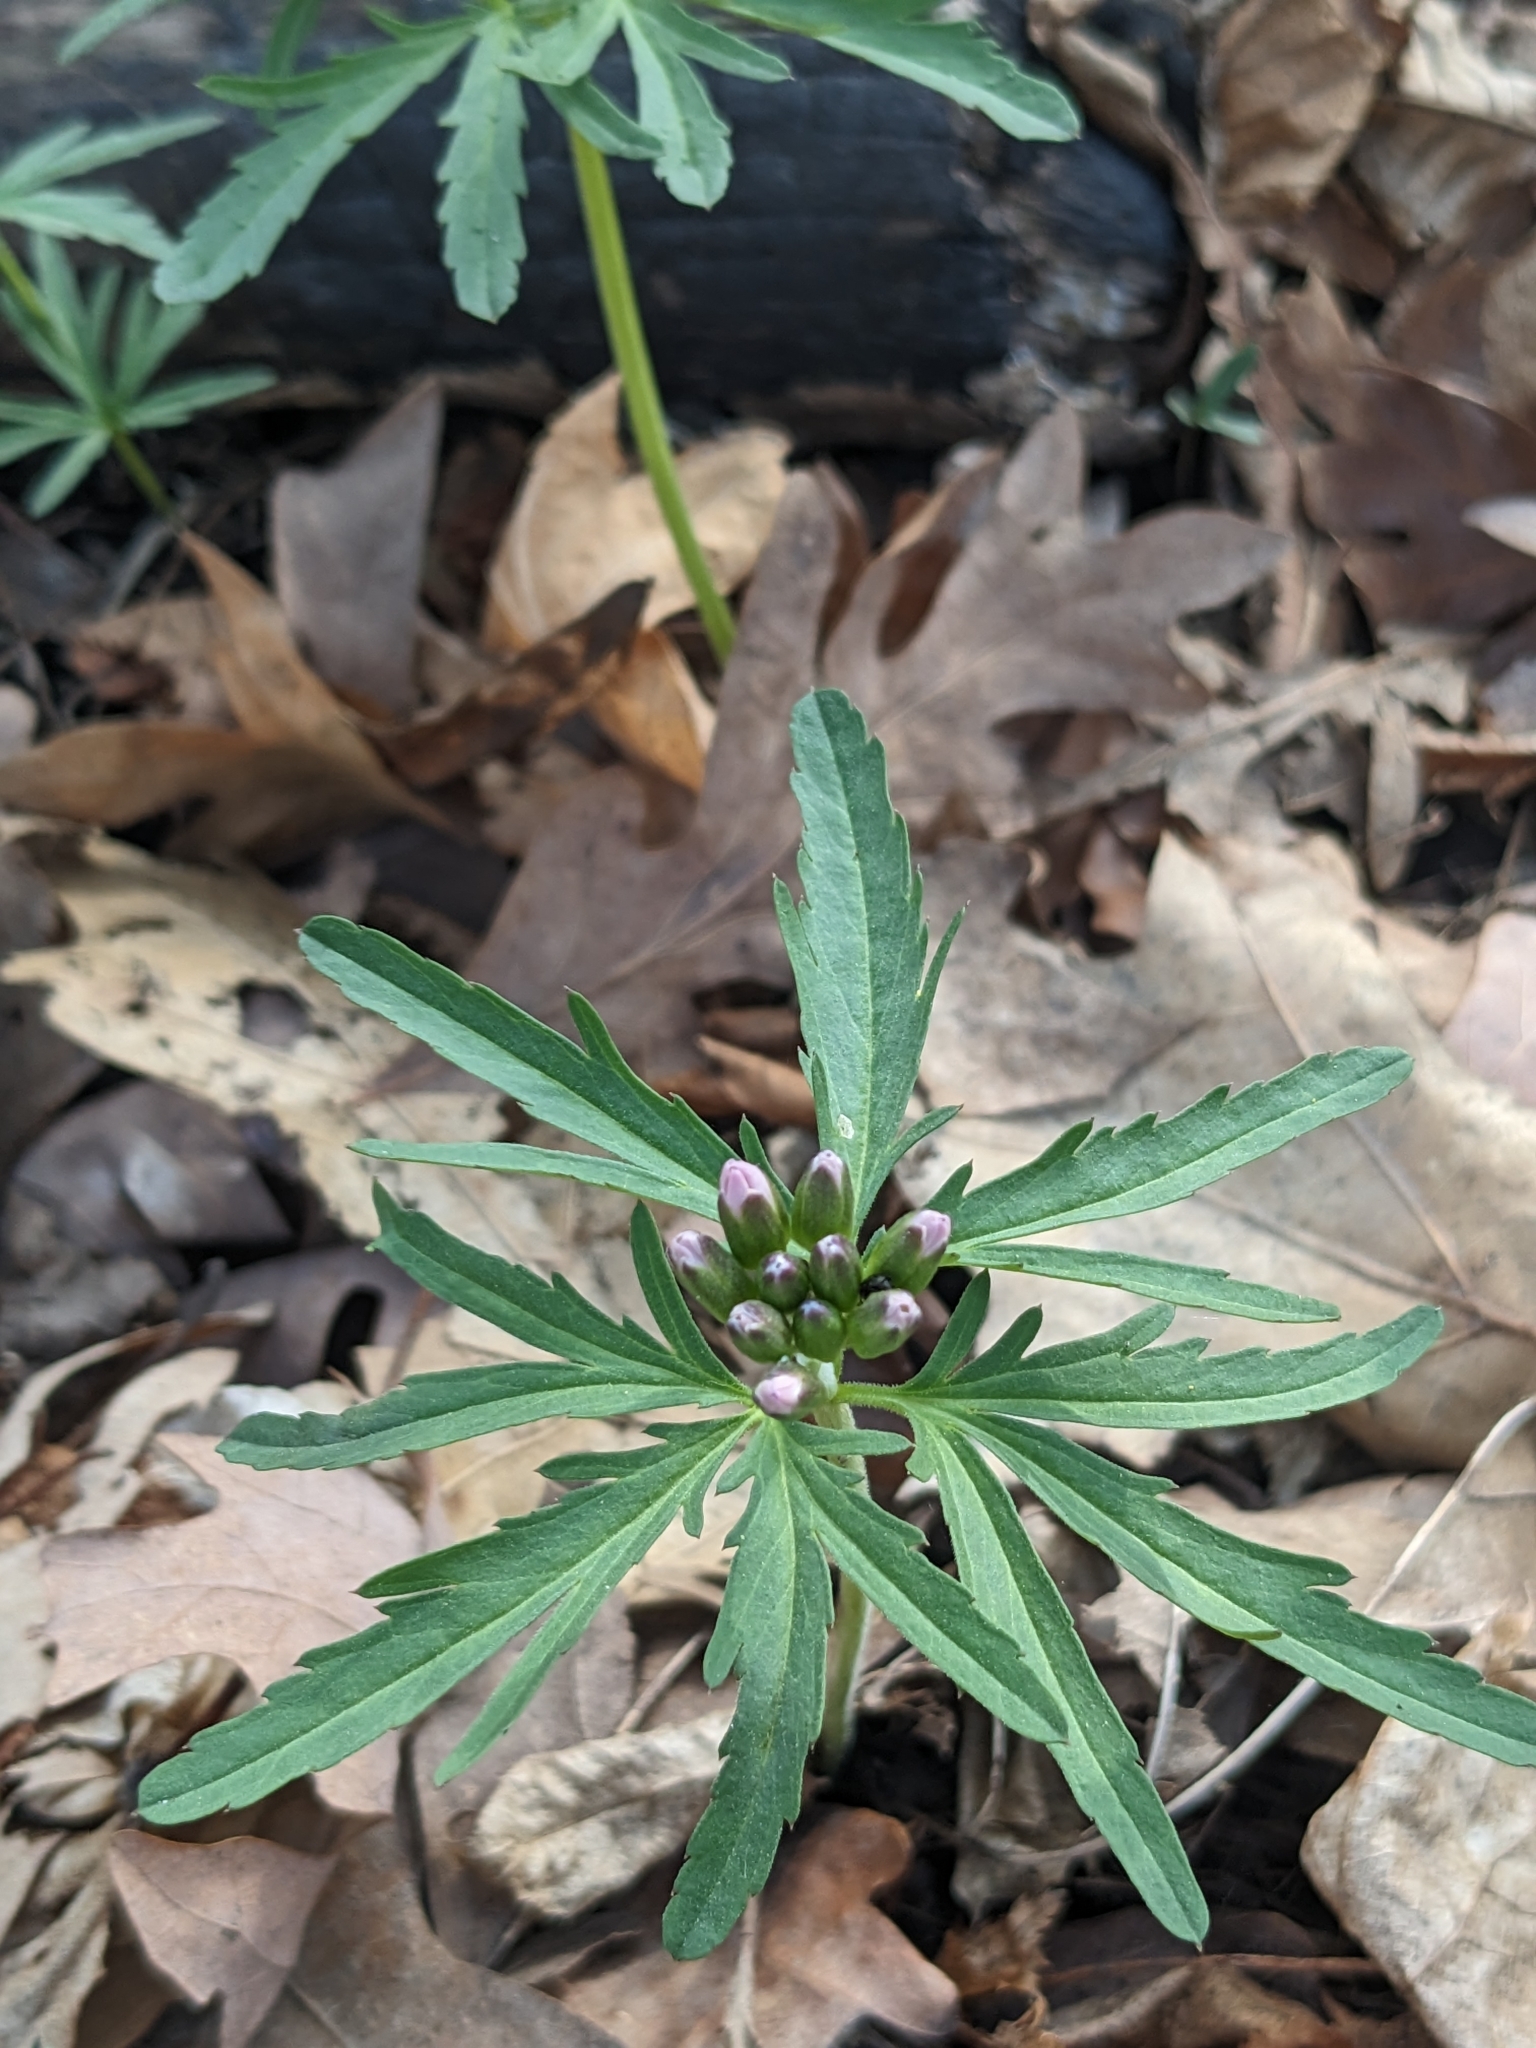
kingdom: Plantae
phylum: Tracheophyta
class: Magnoliopsida
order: Brassicales
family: Brassicaceae
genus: Cardamine
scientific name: Cardamine concatenata
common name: Cut-leaf toothcup
